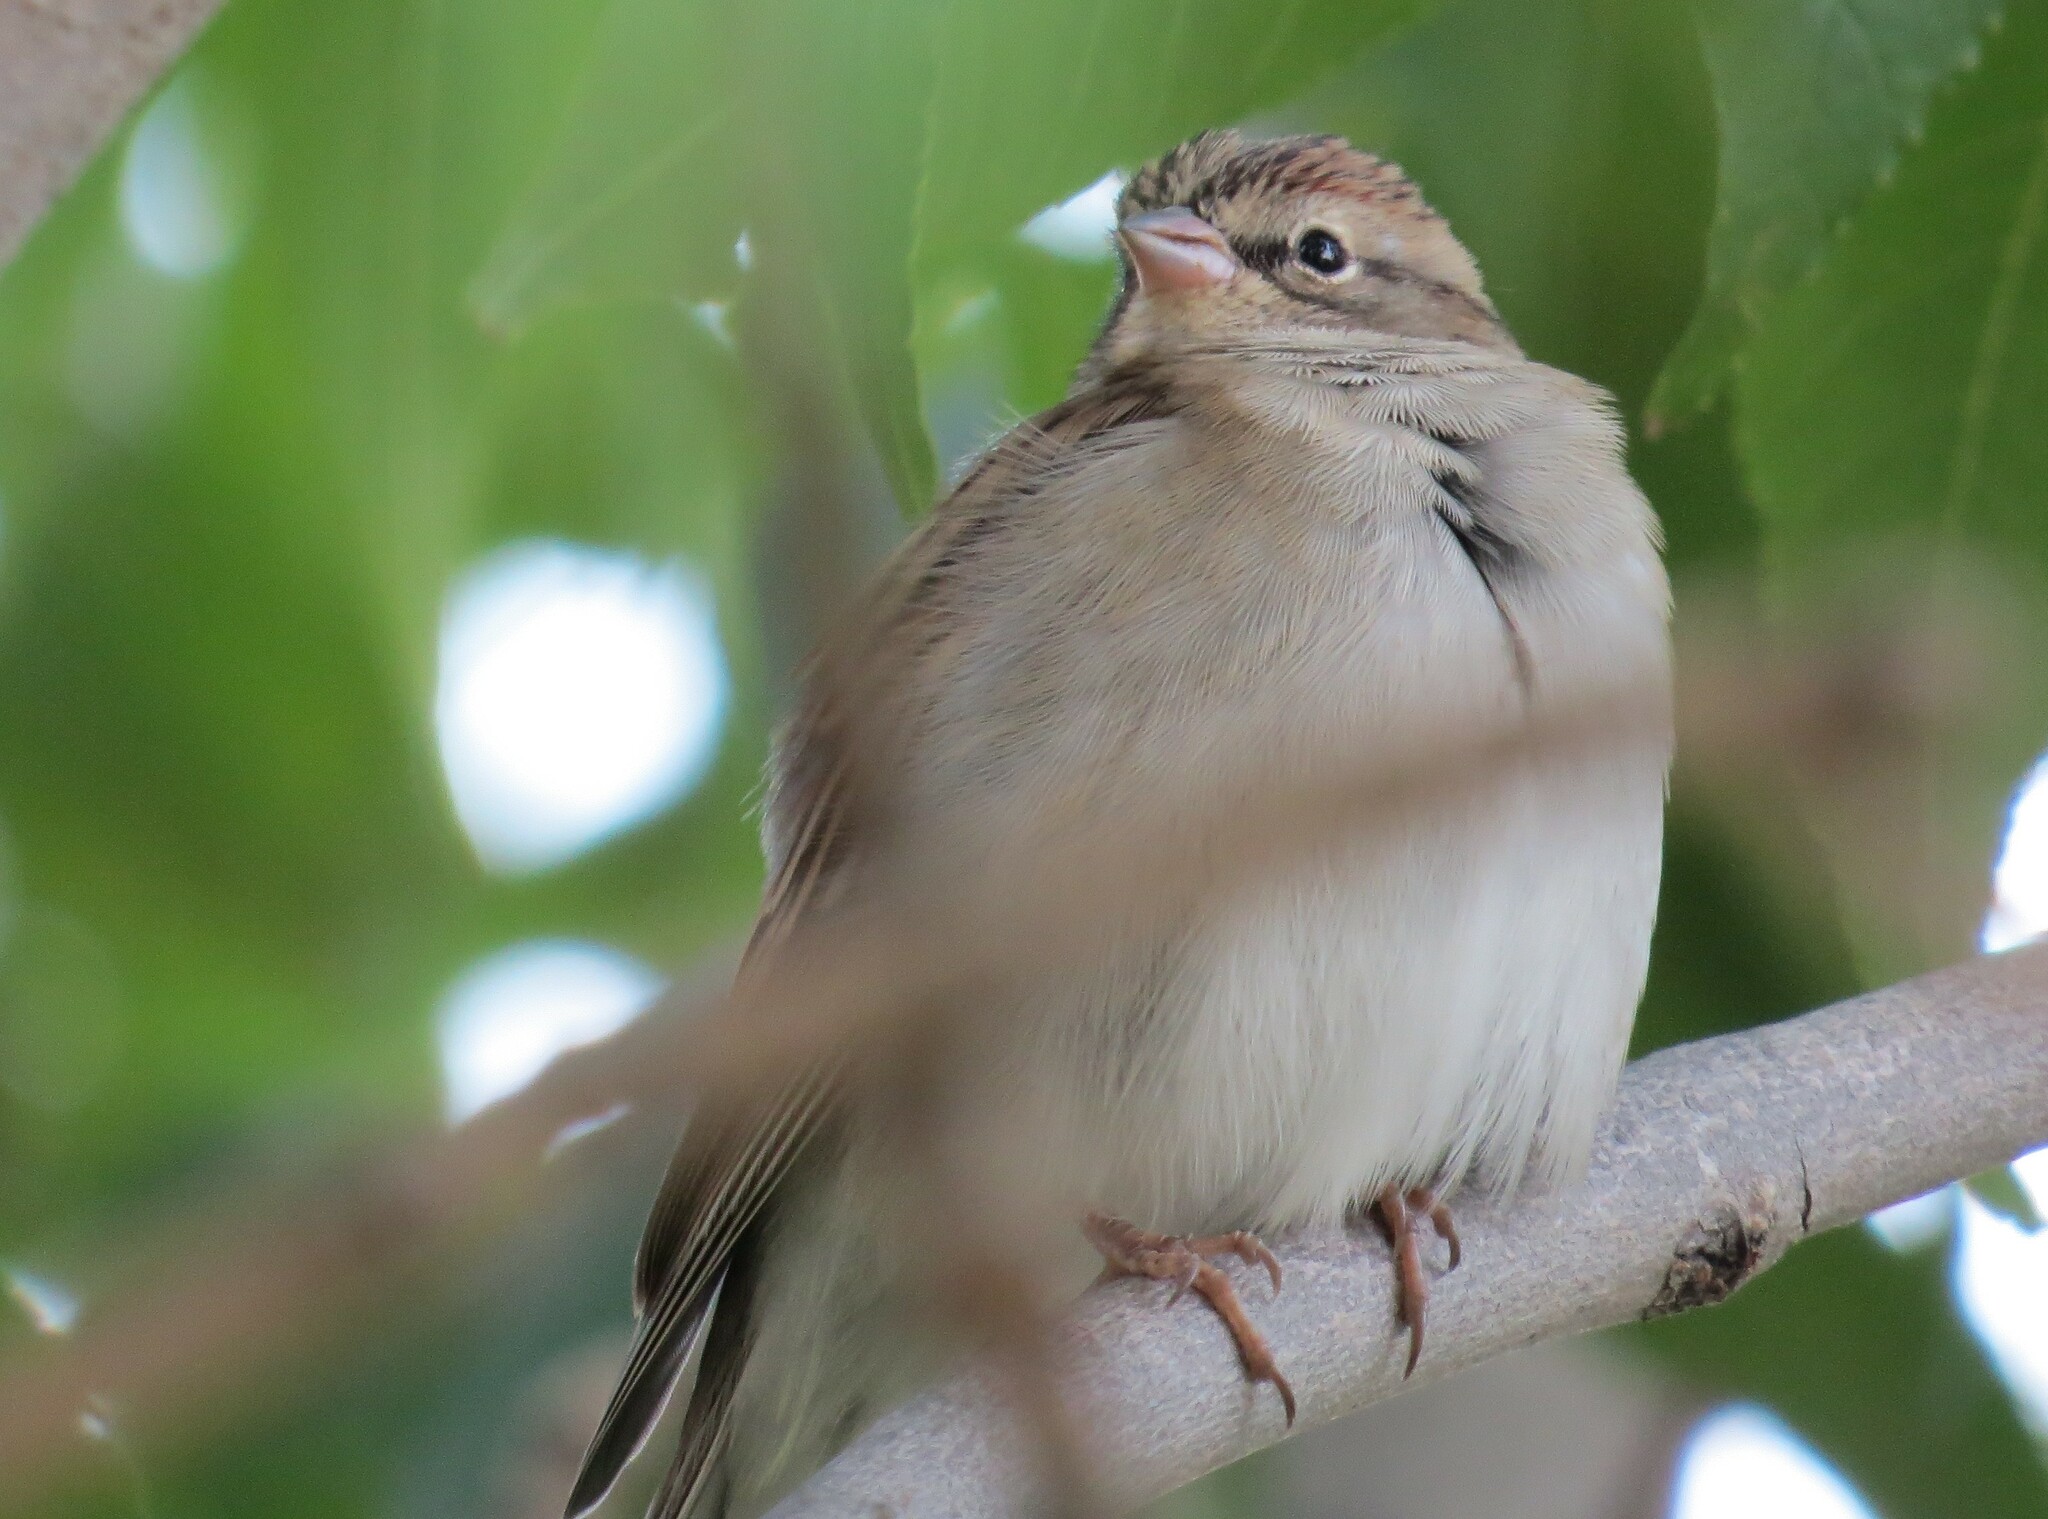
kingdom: Animalia
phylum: Chordata
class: Aves
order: Passeriformes
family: Passerellidae
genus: Spizella
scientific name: Spizella passerina
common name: Chipping sparrow
